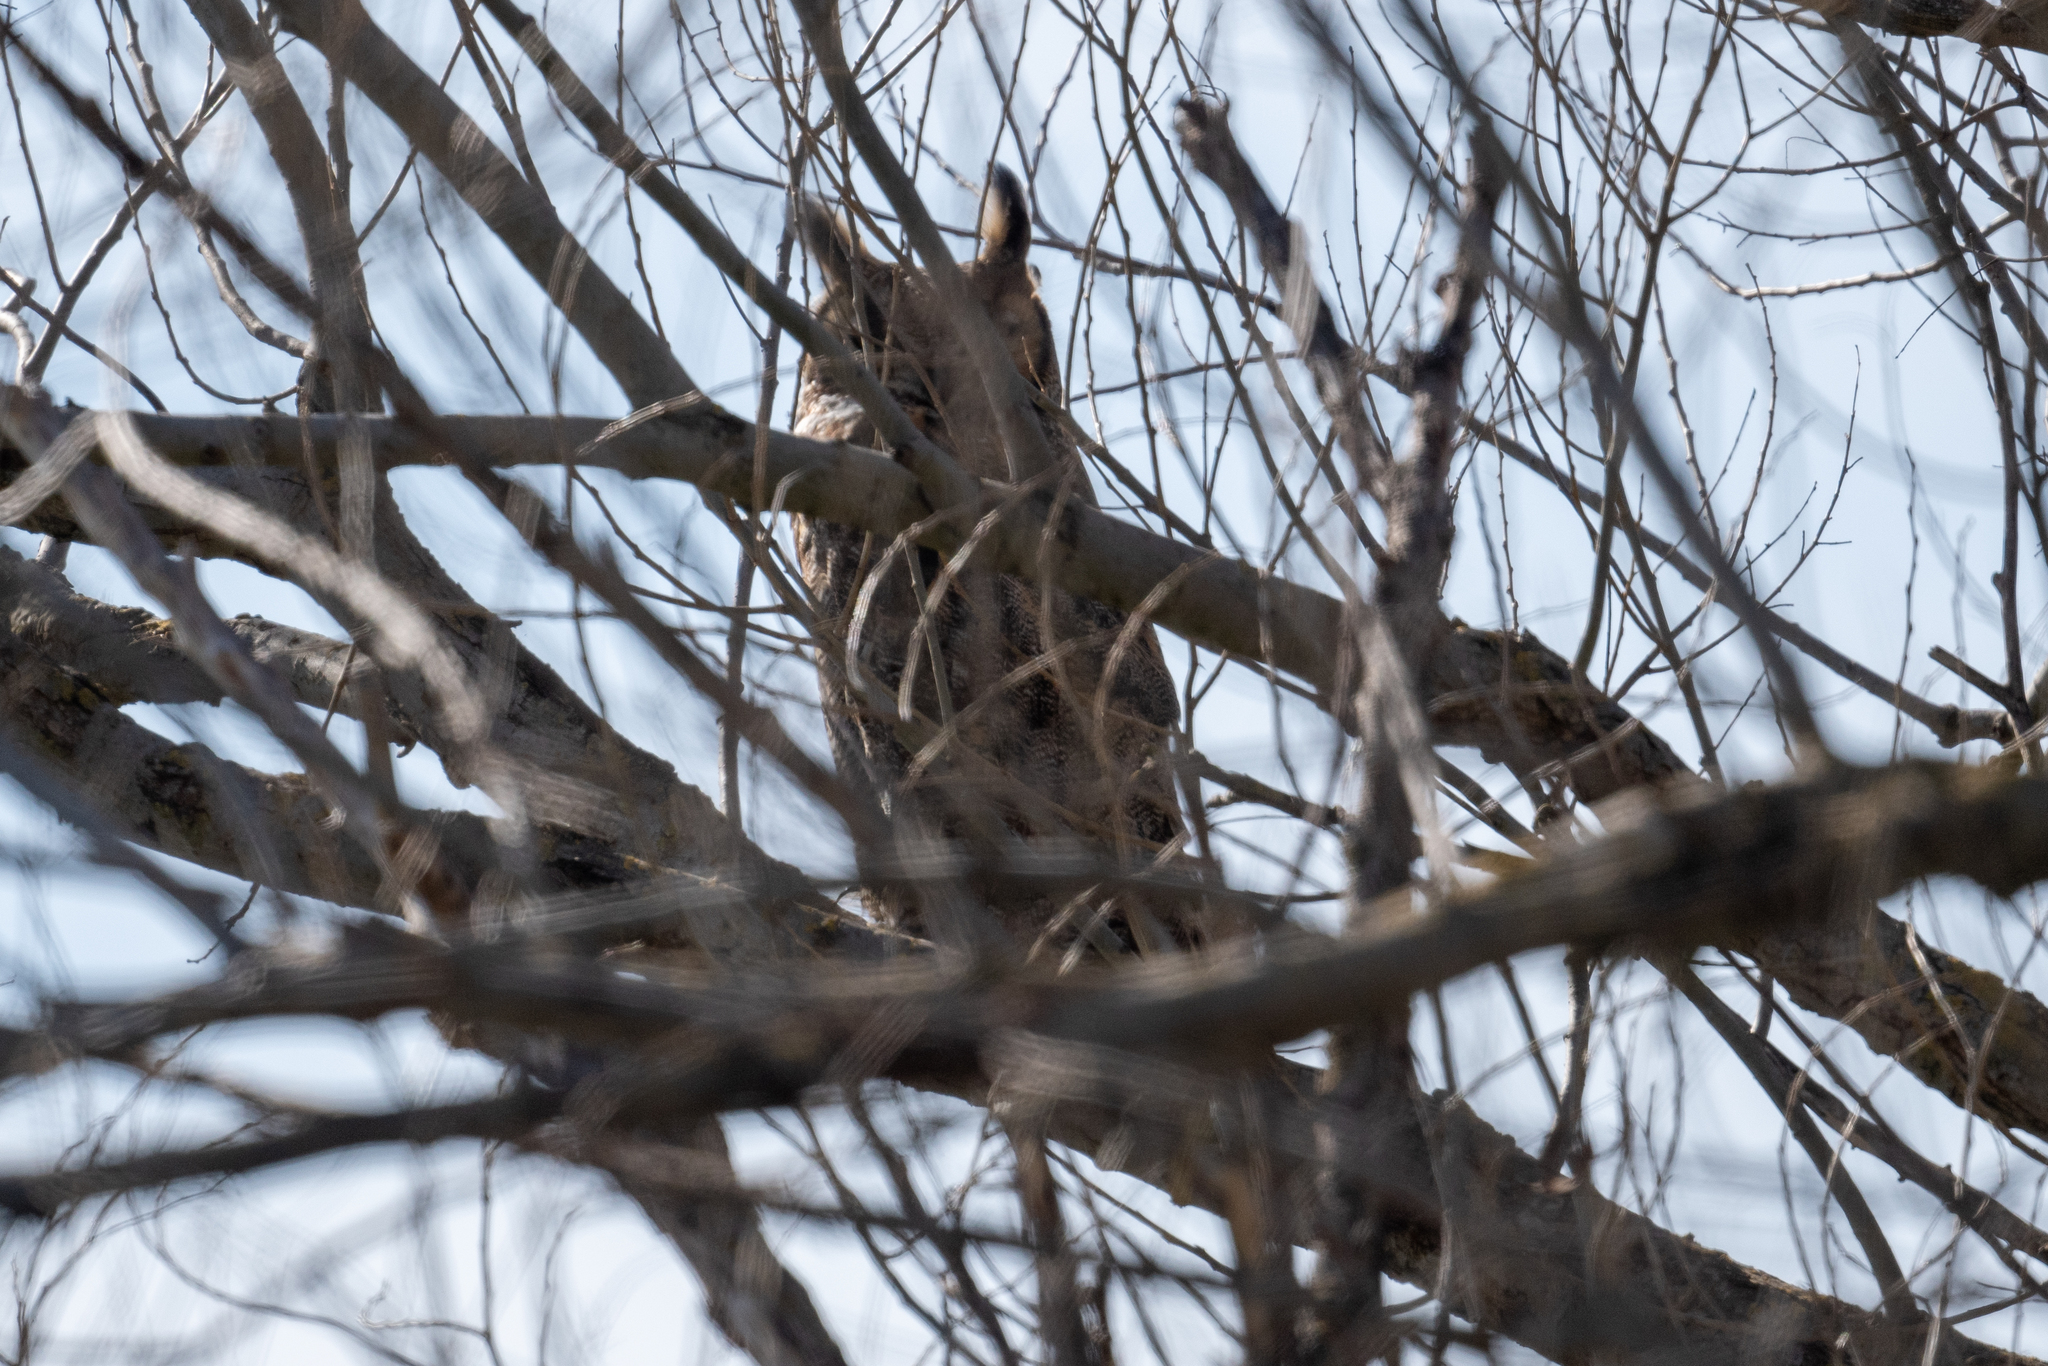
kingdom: Animalia
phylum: Chordata
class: Aves
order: Strigiformes
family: Strigidae
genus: Bubo
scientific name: Bubo virginianus
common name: Great horned owl
